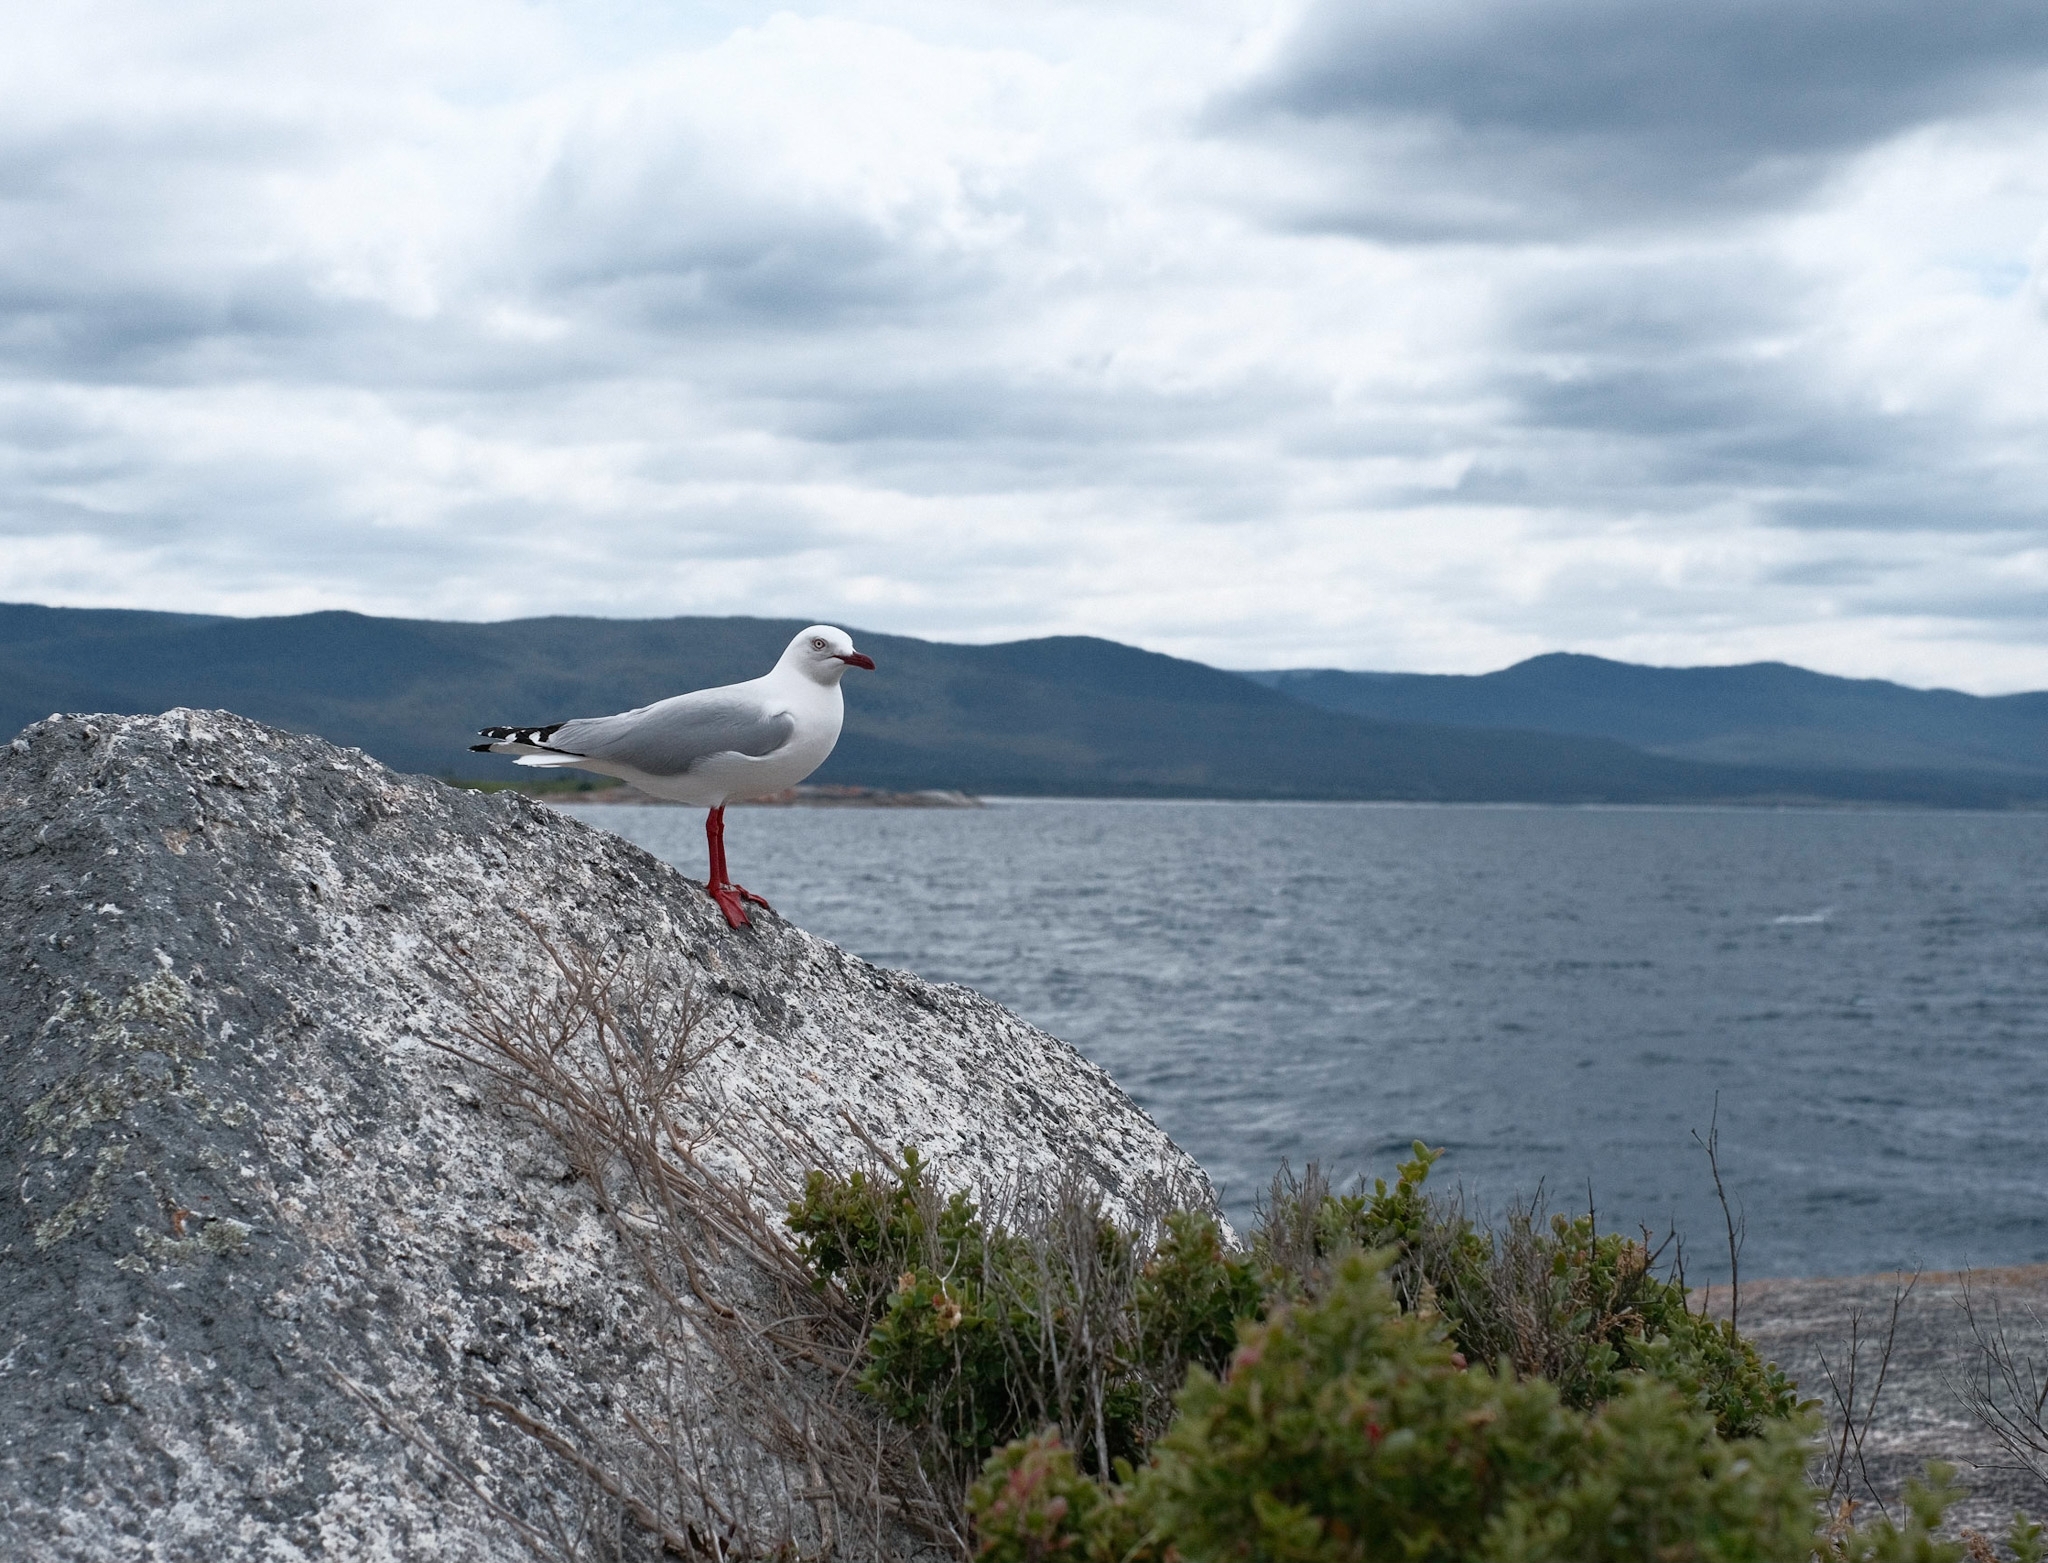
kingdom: Animalia
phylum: Chordata
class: Aves
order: Charadriiformes
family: Laridae
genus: Chroicocephalus
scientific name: Chroicocephalus novaehollandiae
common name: Silver gull
